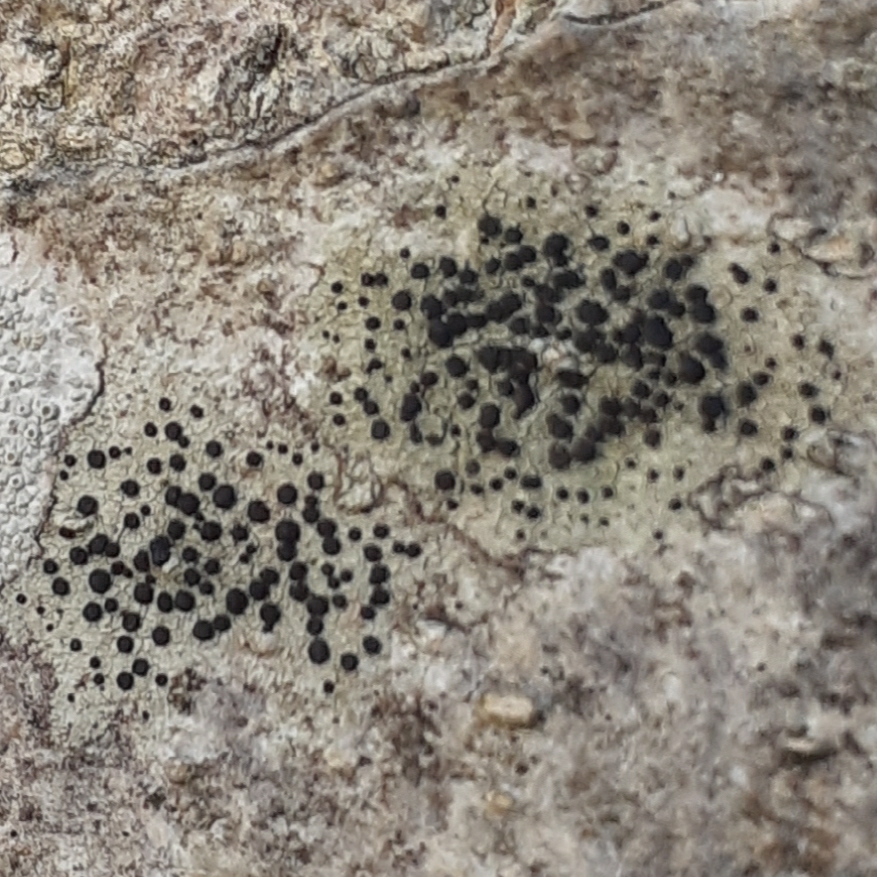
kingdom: Fungi
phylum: Ascomycota
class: Lecanoromycetes
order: Lecanorales
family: Lecanoraceae
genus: Lecidella
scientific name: Lecidella elaeochroma
